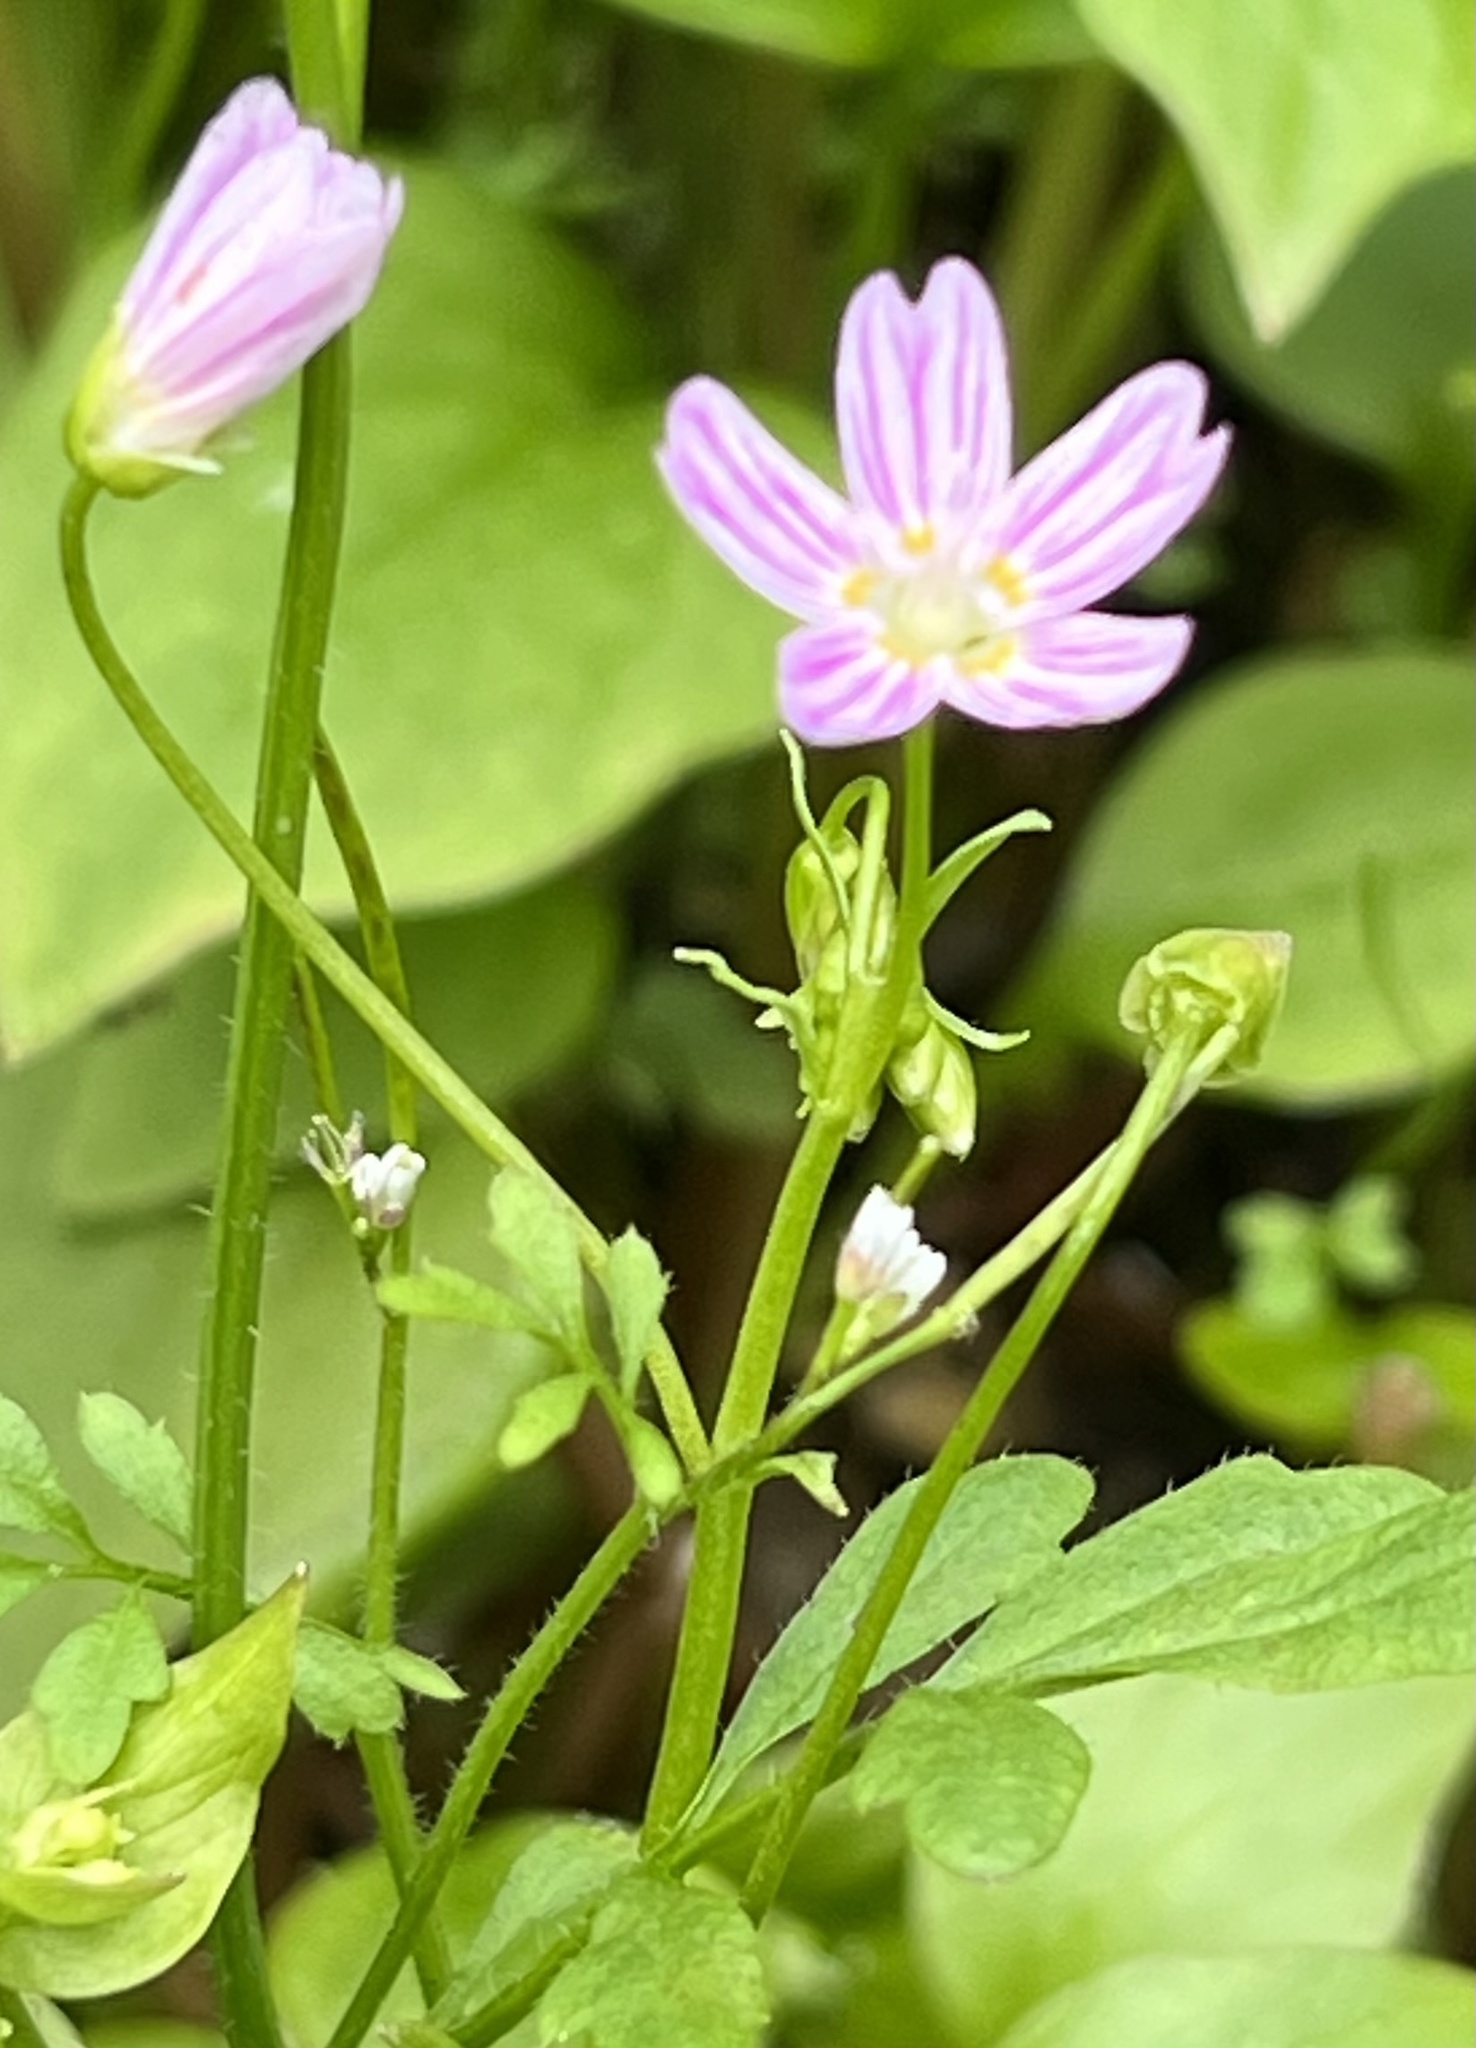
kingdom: Plantae
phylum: Tracheophyta
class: Magnoliopsida
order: Caryophyllales
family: Montiaceae
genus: Claytonia
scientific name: Claytonia sibirica
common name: Pink purslane
